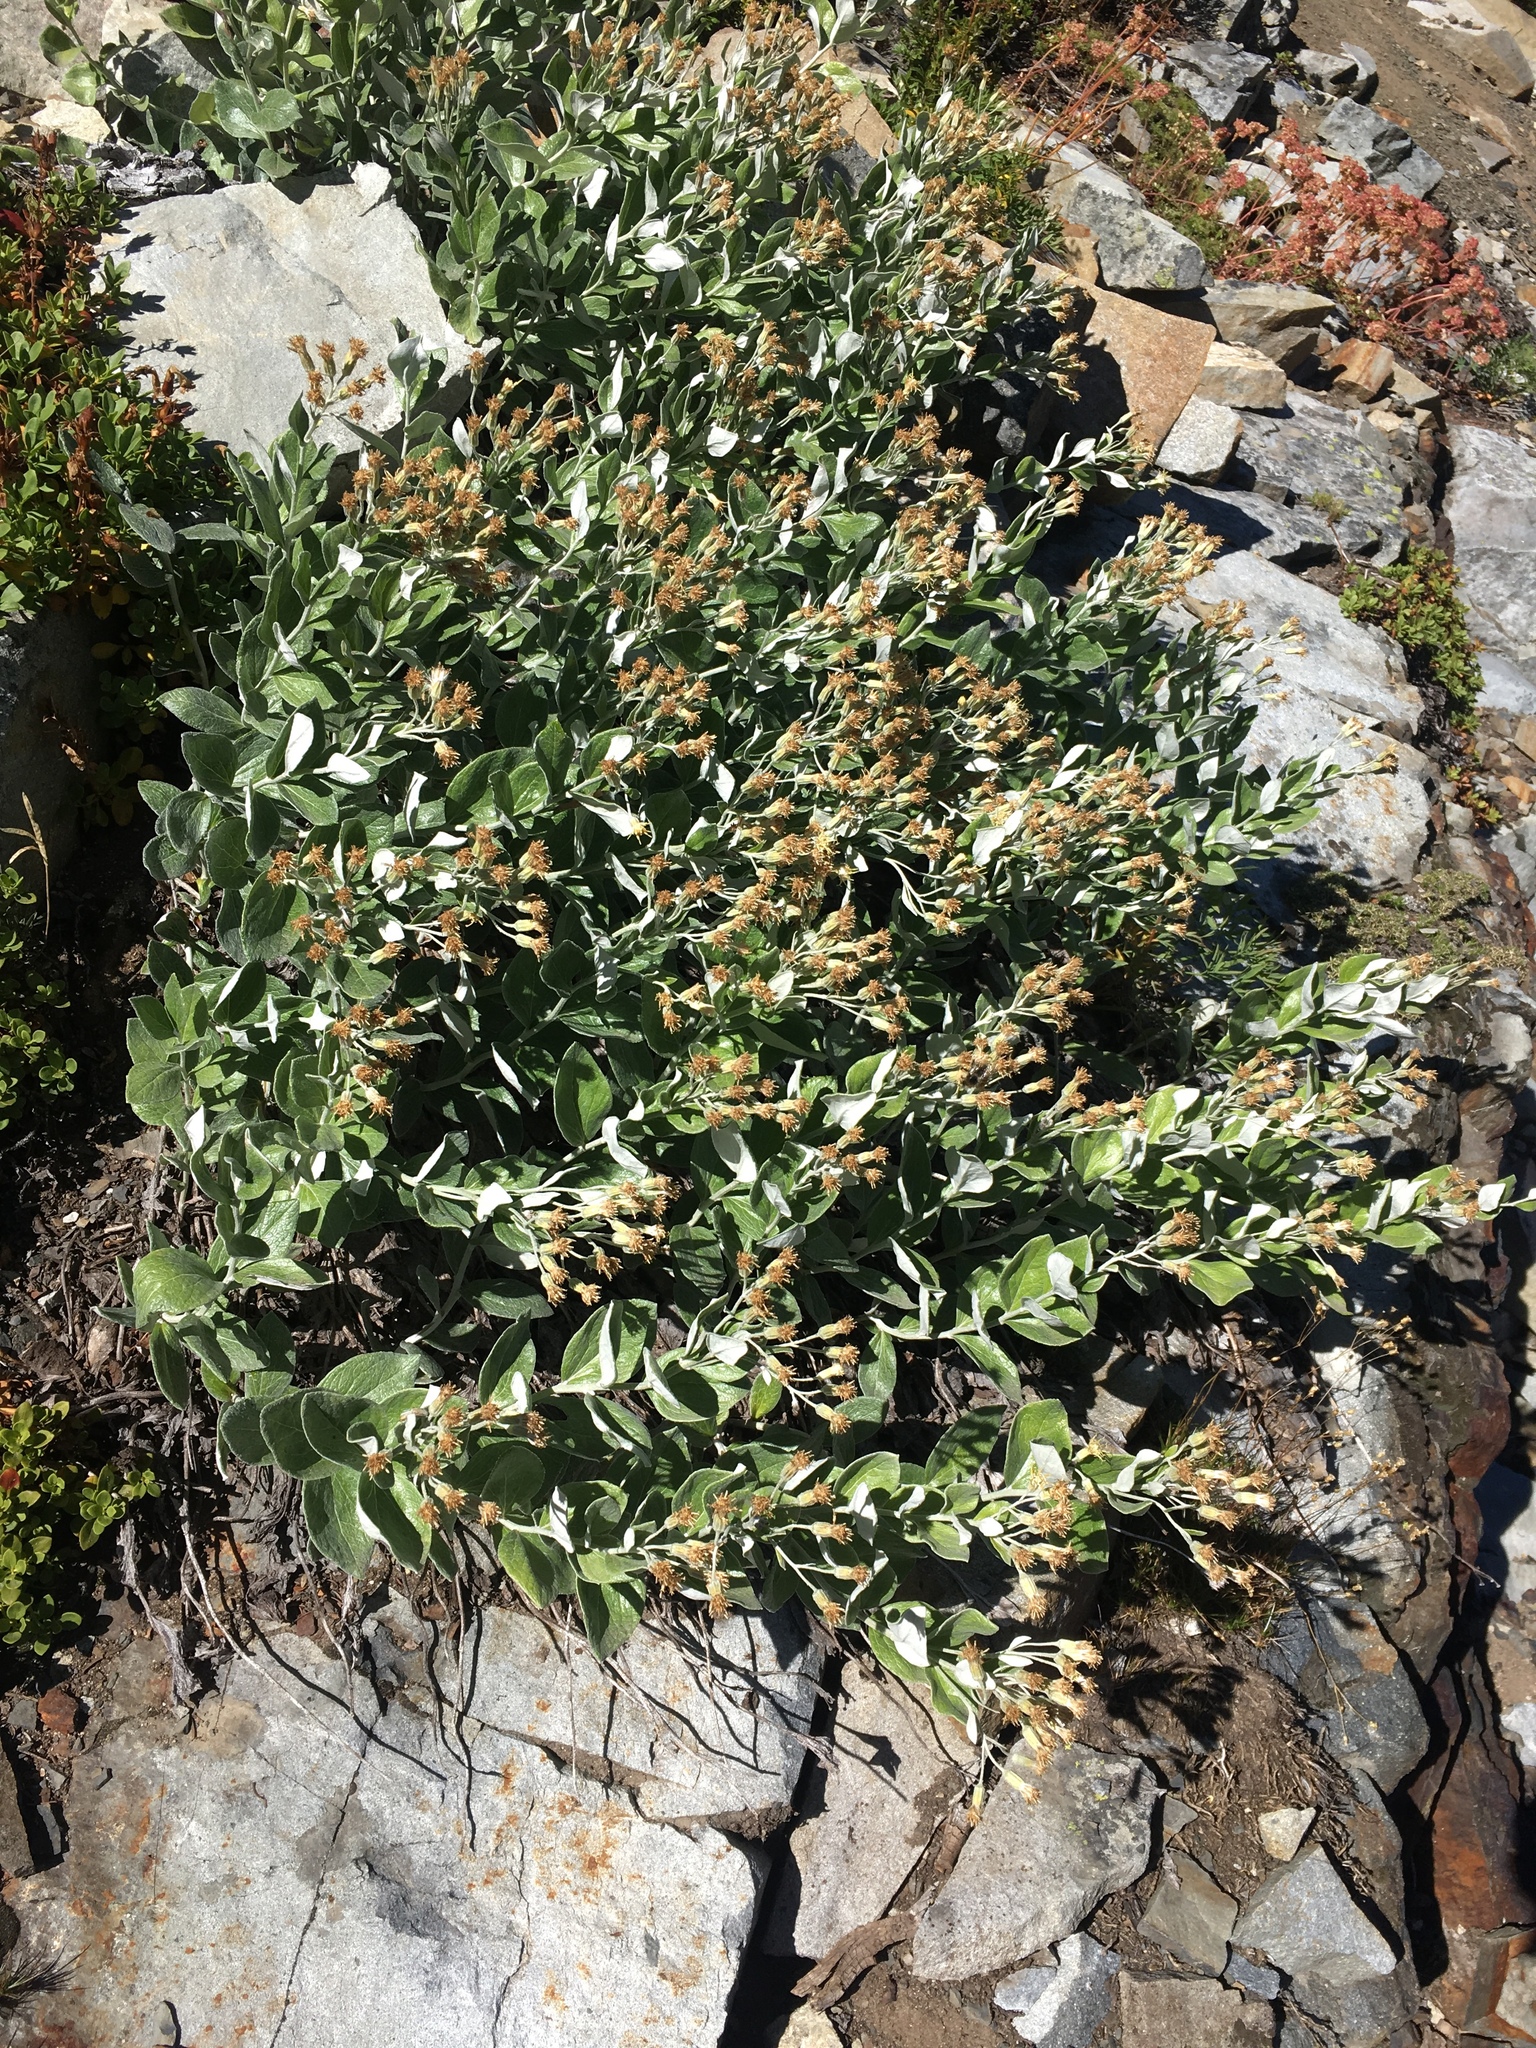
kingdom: Plantae
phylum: Tracheophyta
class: Magnoliopsida
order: Asterales
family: Asteraceae
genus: Luina
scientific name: Luina hypoleuca
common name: Little-leaved luina
